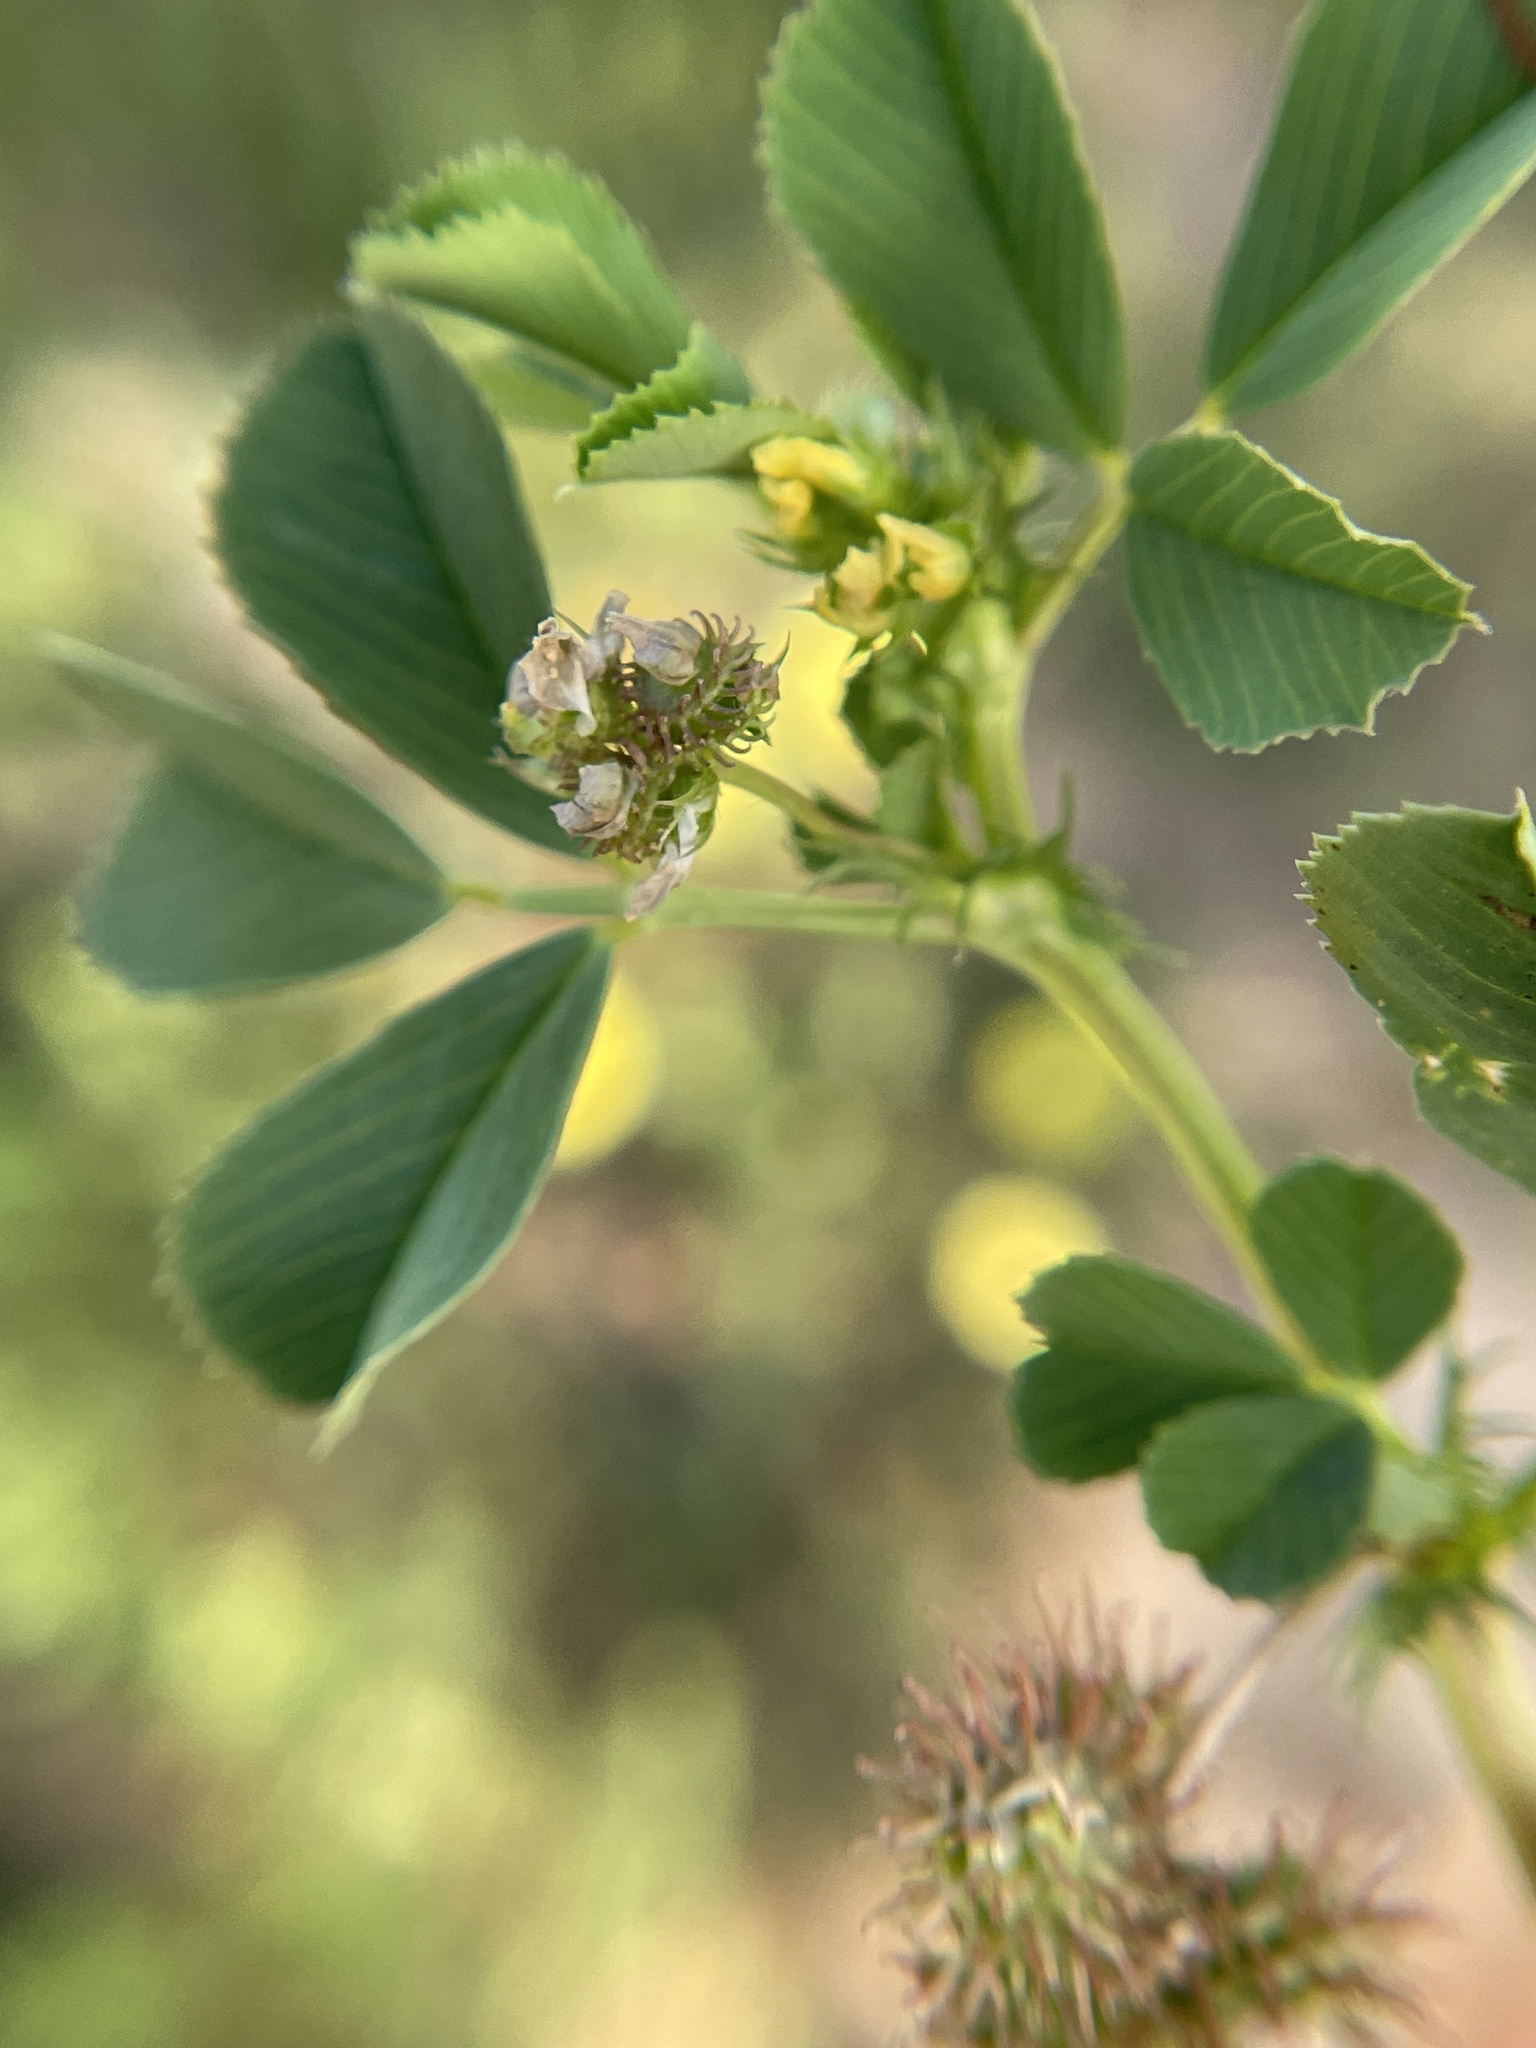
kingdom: Plantae
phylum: Tracheophyta
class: Magnoliopsida
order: Fabales
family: Fabaceae
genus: Medicago
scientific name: Medicago polymorpha
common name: Burclover
